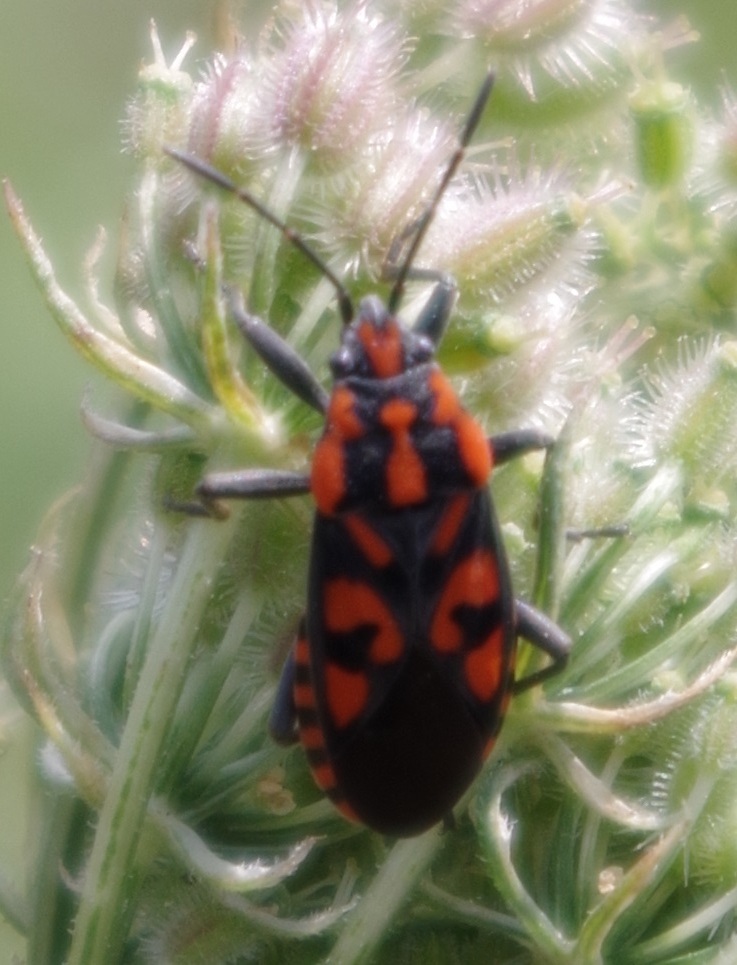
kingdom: Animalia
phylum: Arthropoda
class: Insecta
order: Hemiptera
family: Lygaeidae
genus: Spilostethus
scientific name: Spilostethus saxatilis
